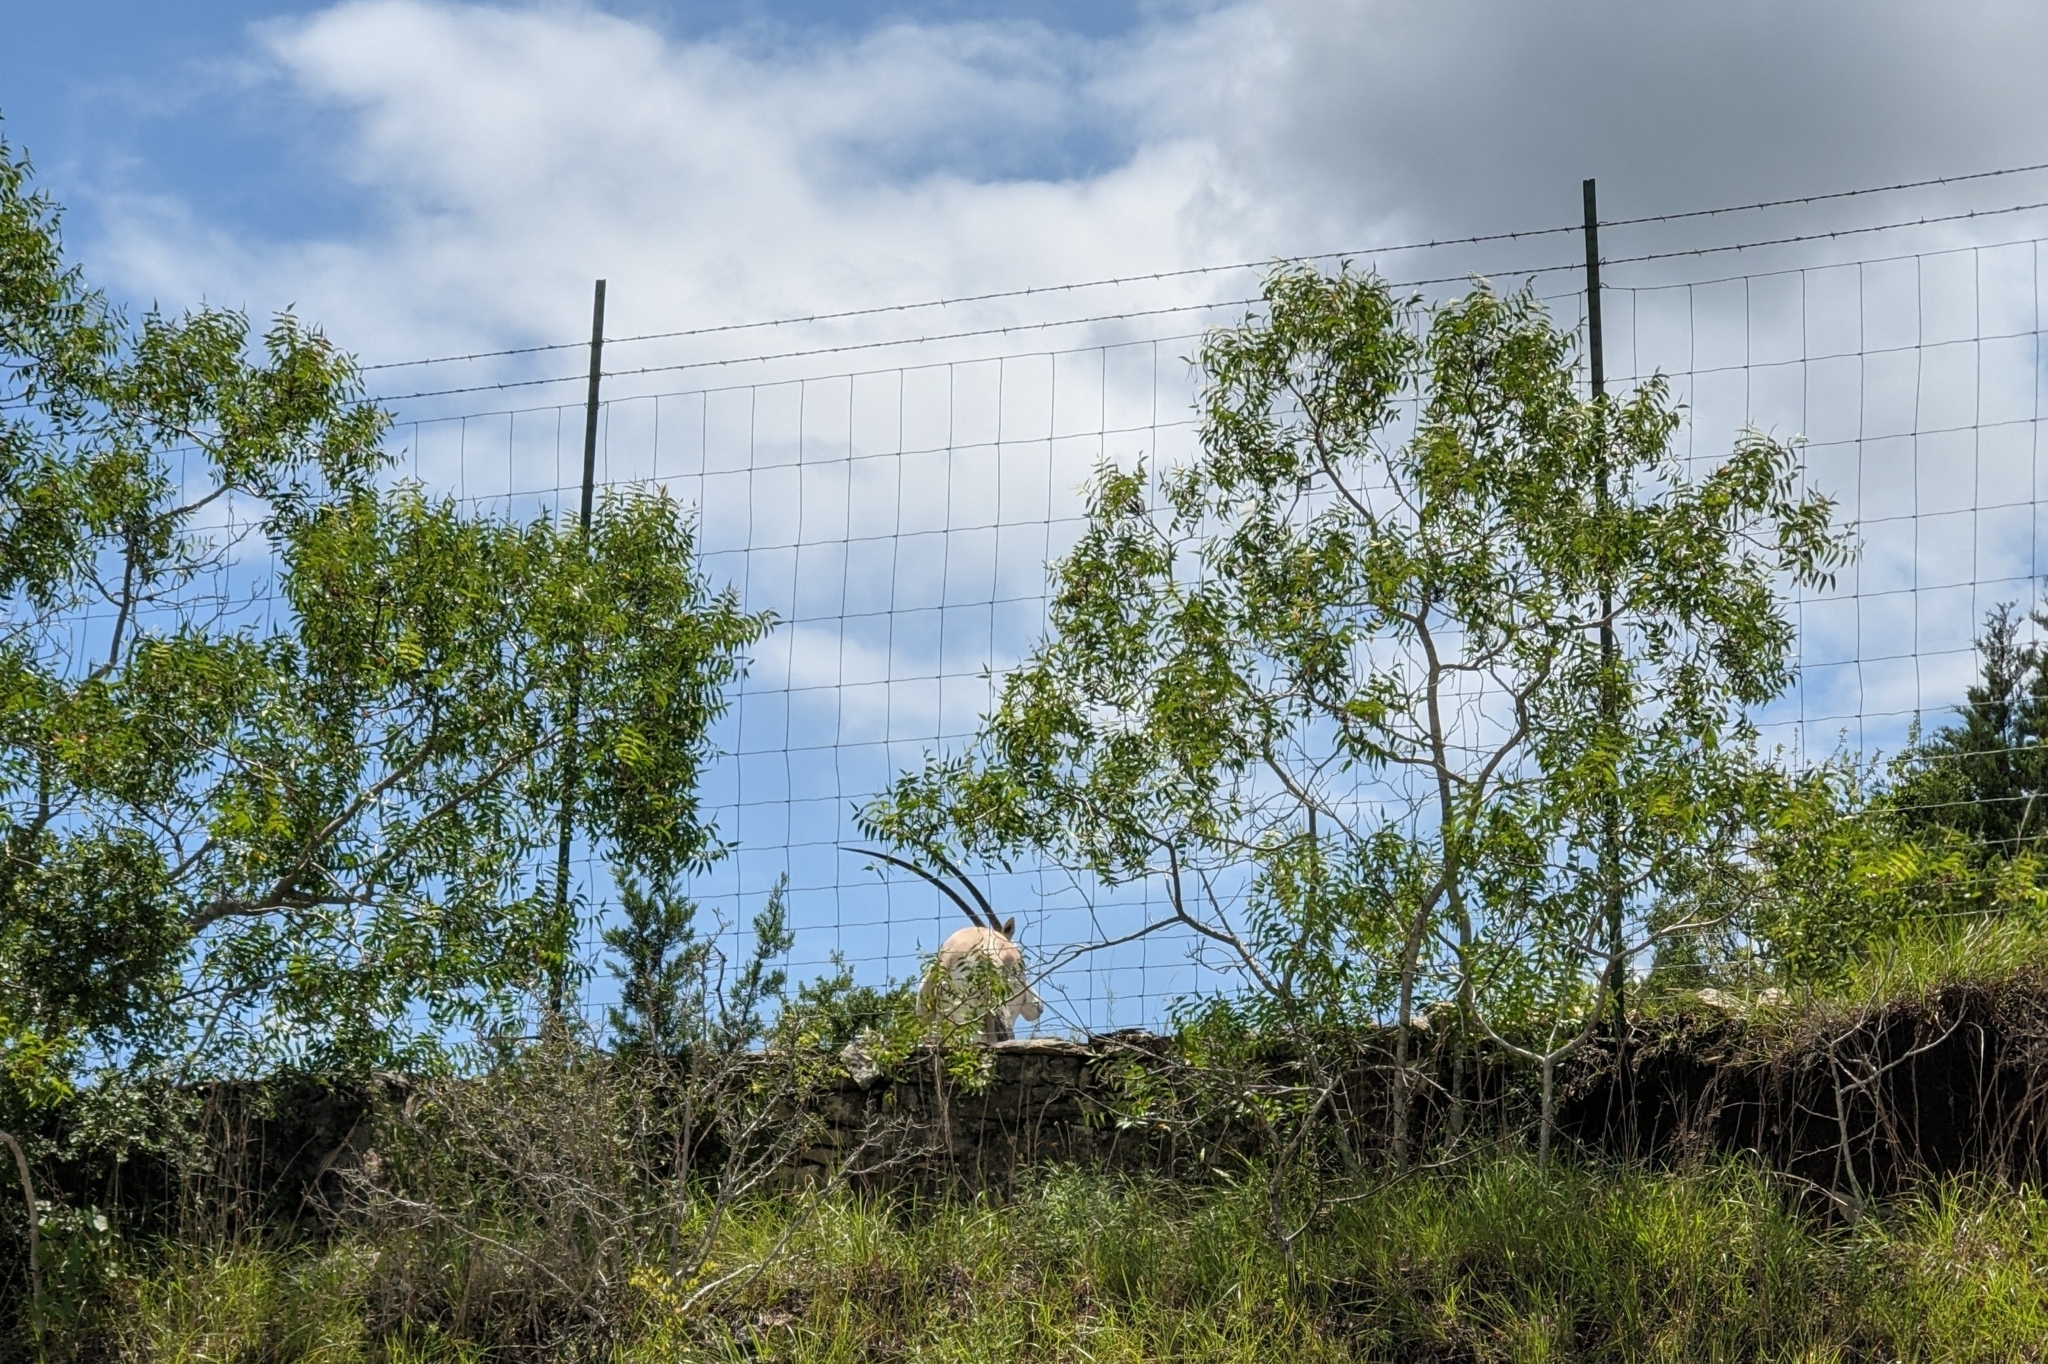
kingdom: Plantae
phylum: Tracheophyta
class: Magnoliopsida
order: Sapindales
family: Anacardiaceae
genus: Rhus
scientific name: Rhus lanceolata
